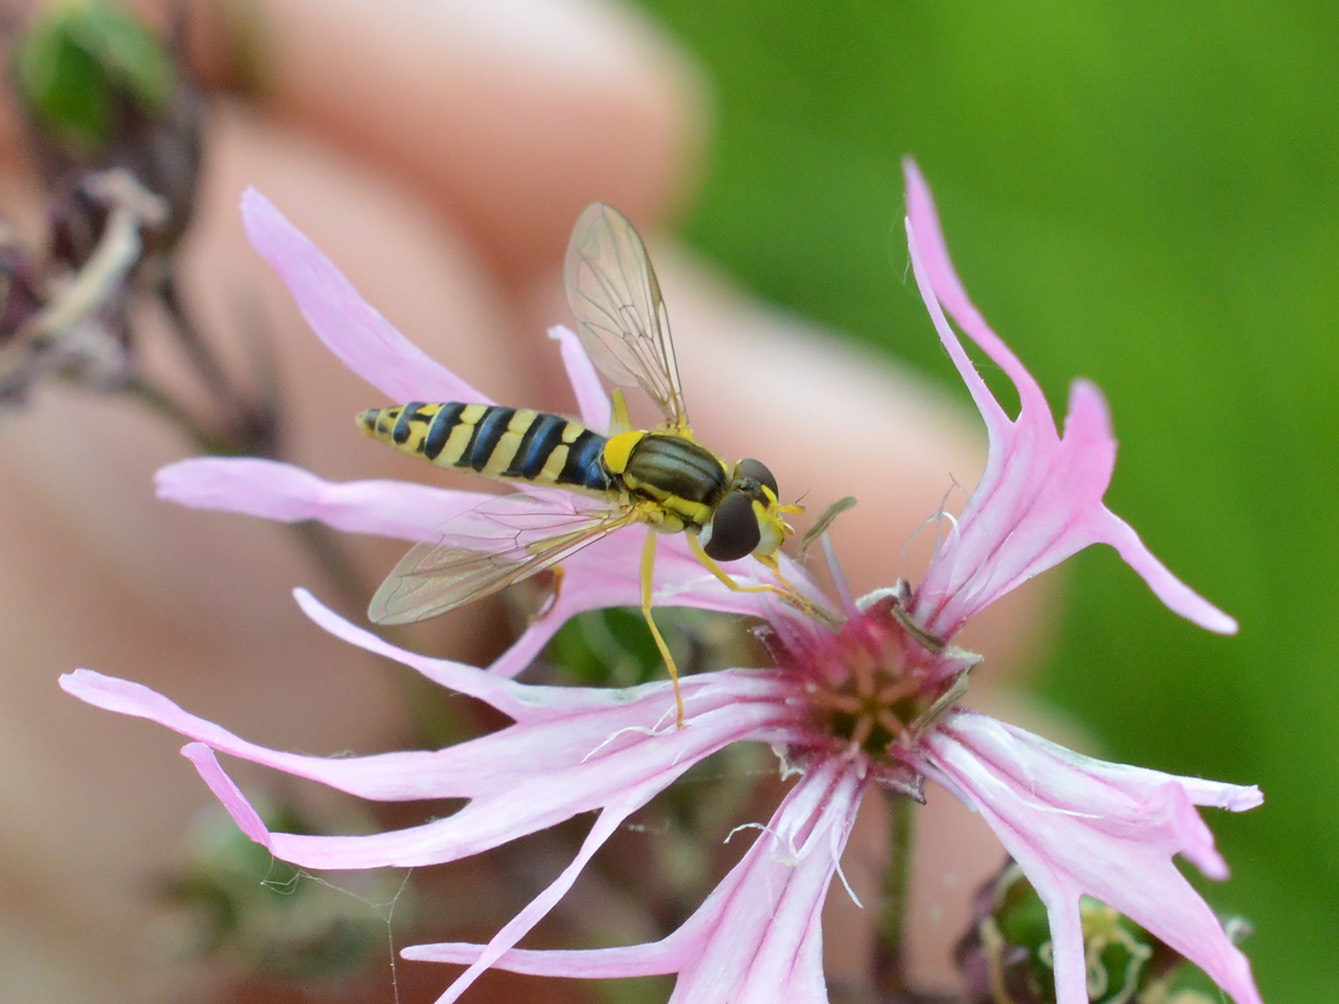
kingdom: Animalia
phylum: Arthropoda
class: Insecta
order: Diptera
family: Syrphidae
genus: Sphaerophoria
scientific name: Sphaerophoria
